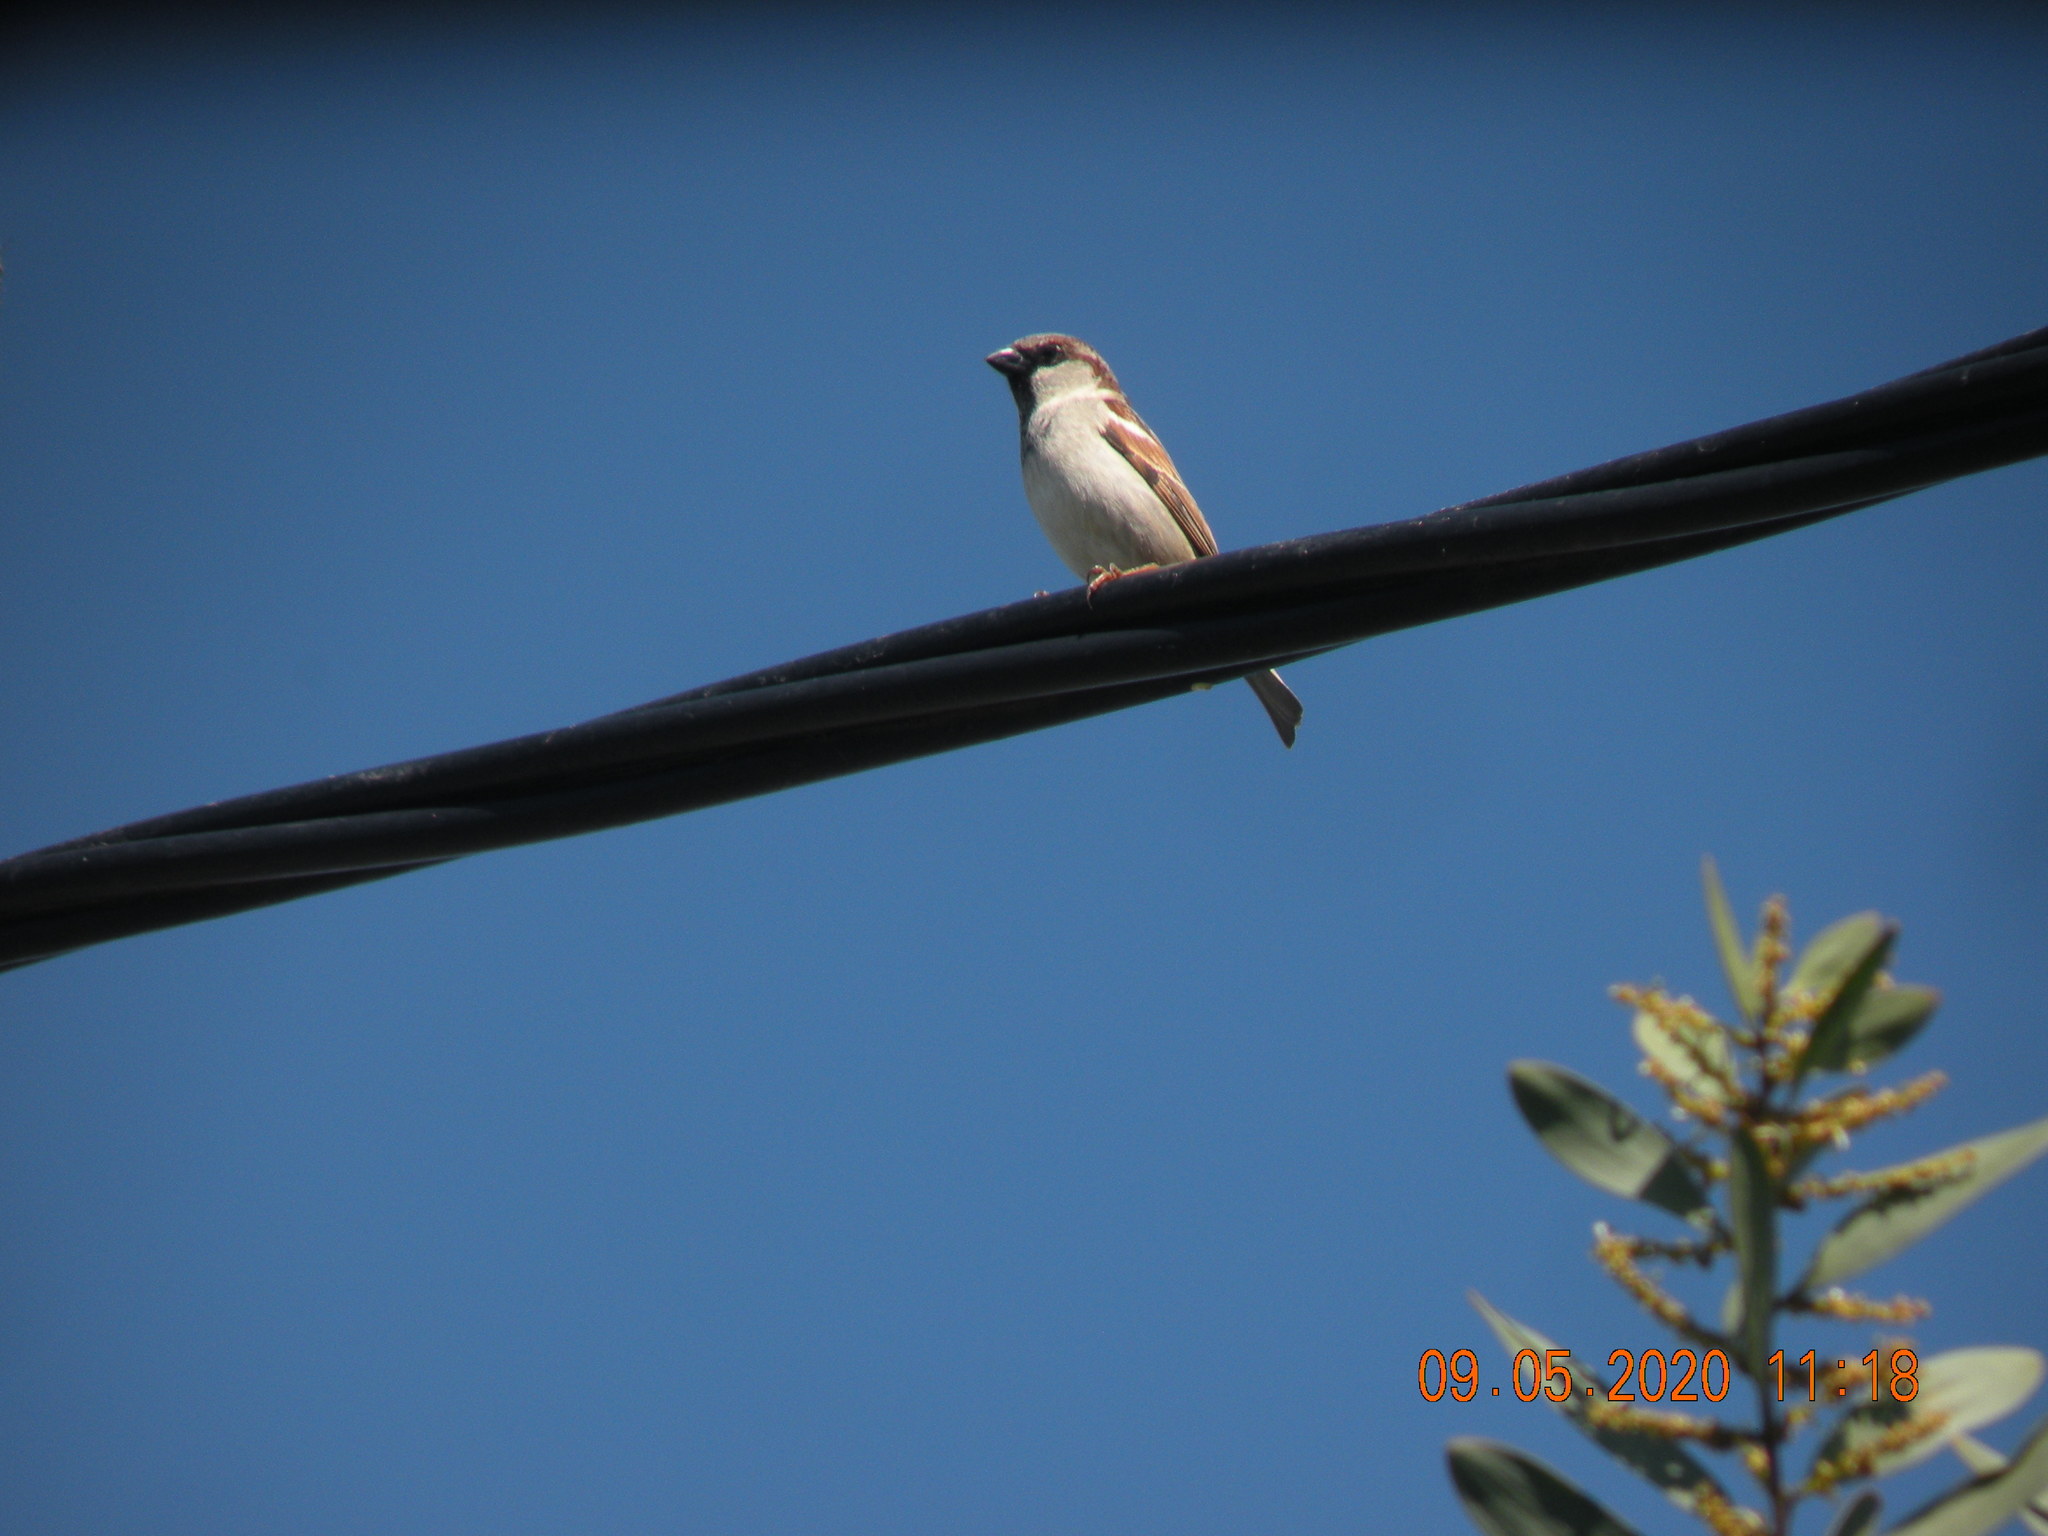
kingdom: Animalia
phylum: Chordata
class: Aves
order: Passeriformes
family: Passeridae
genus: Passer
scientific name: Passer domesticus
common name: House sparrow
